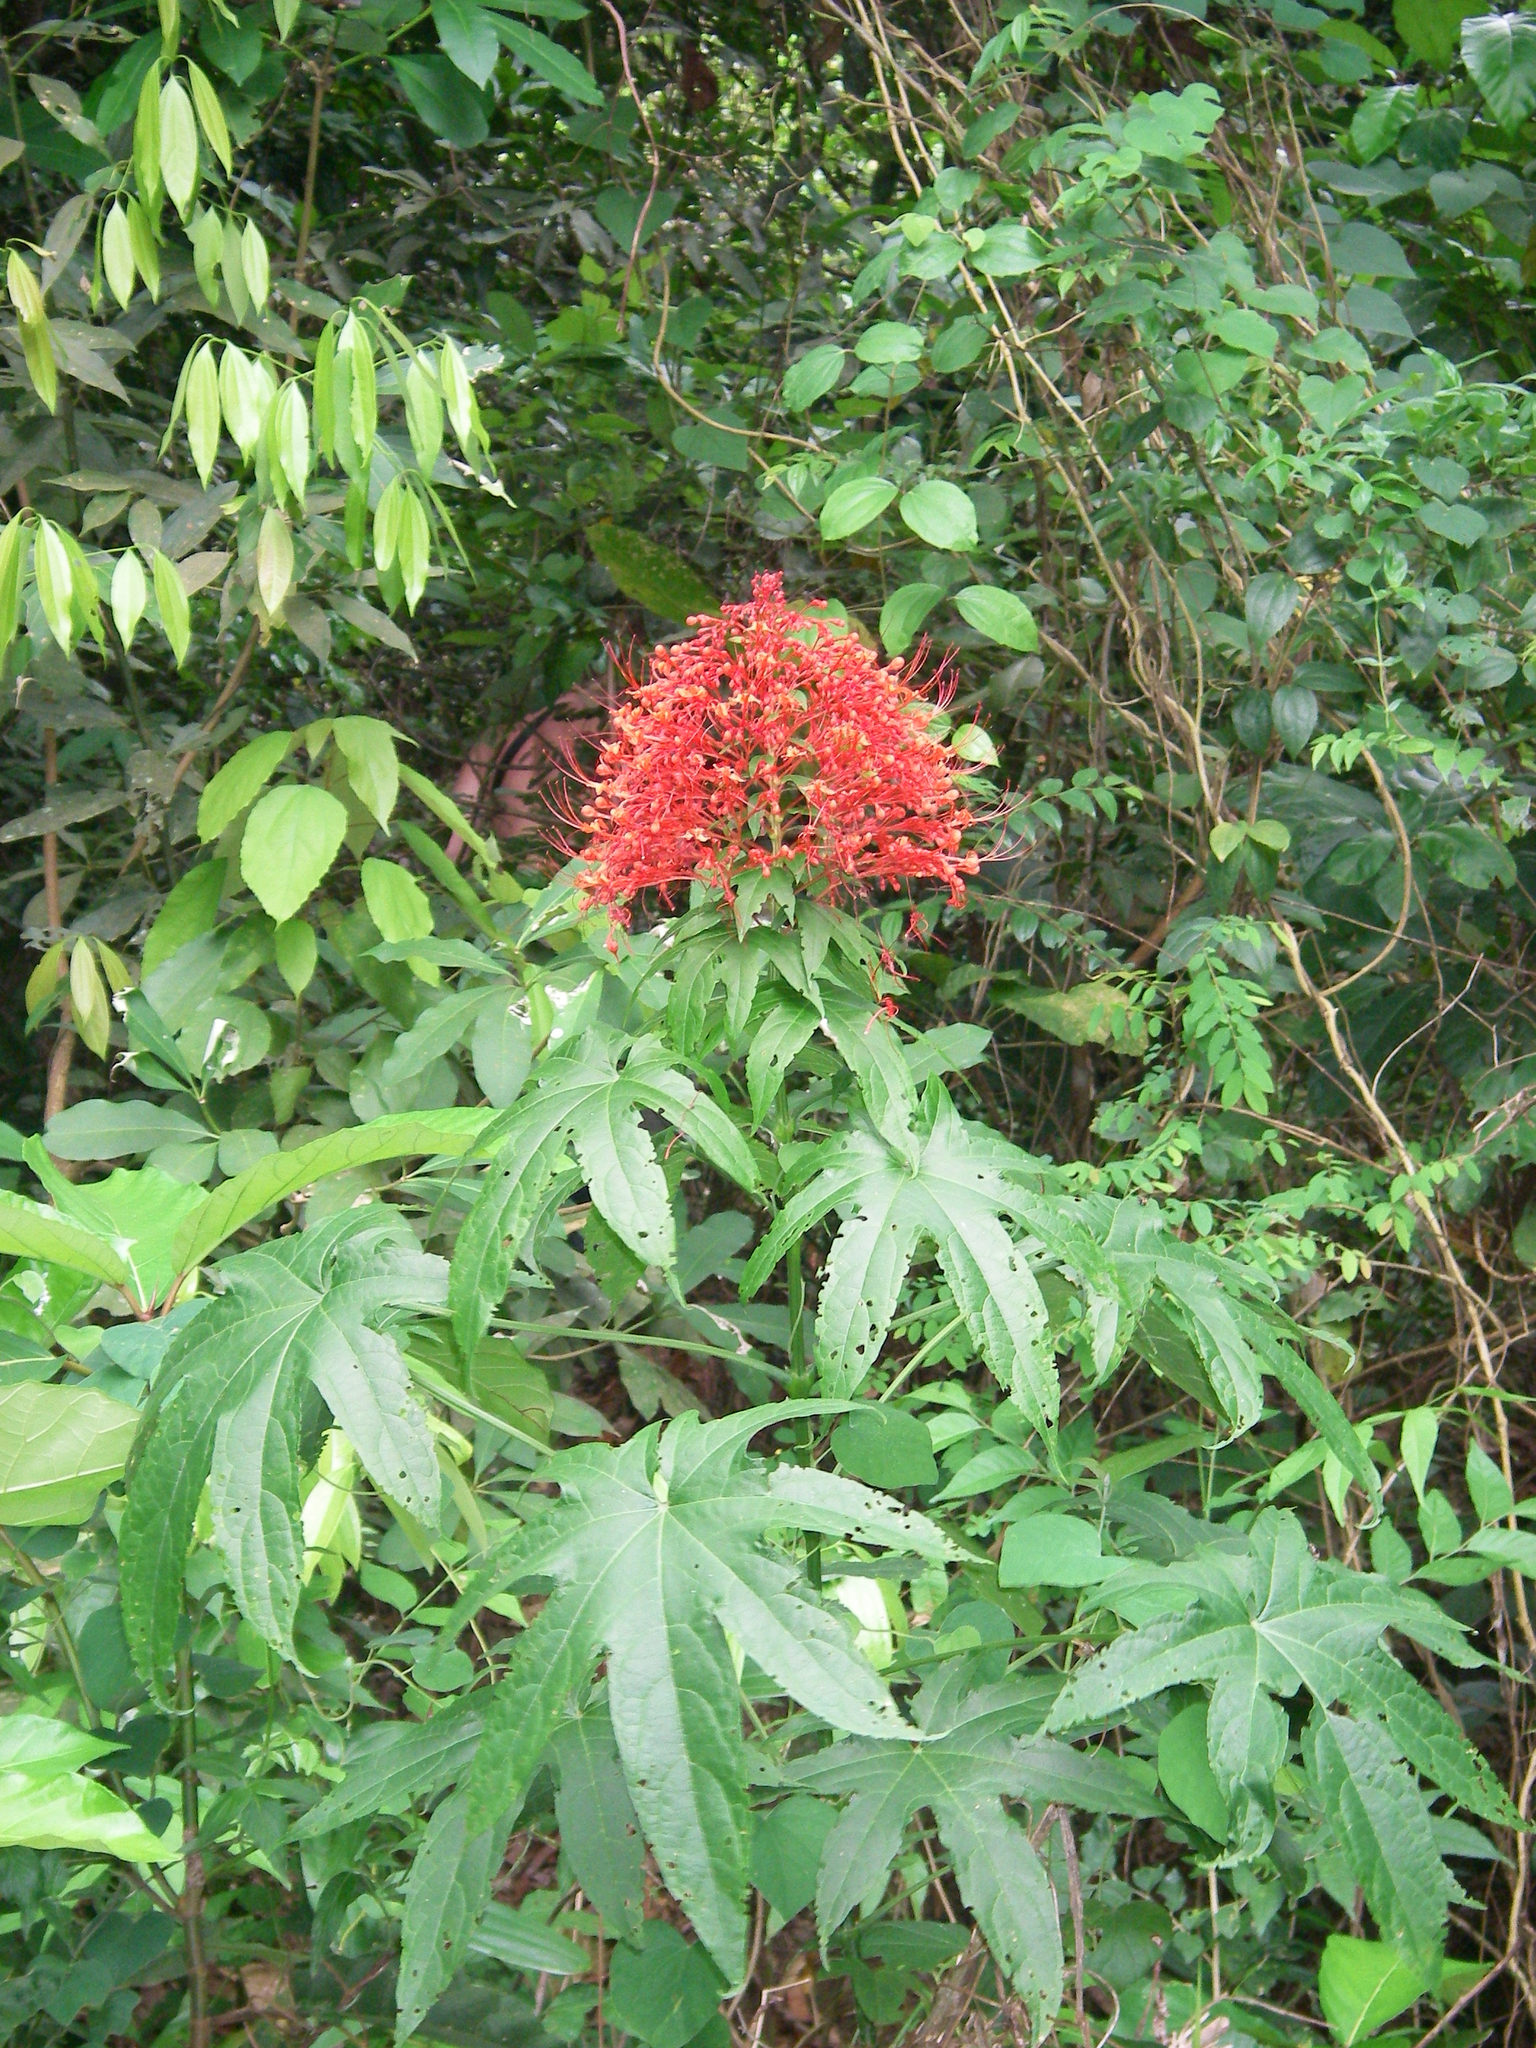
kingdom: Plantae
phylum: Tracheophyta
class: Magnoliopsida
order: Lamiales
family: Lamiaceae
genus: Clerodendrum
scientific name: Clerodendrum palmatolobatum
